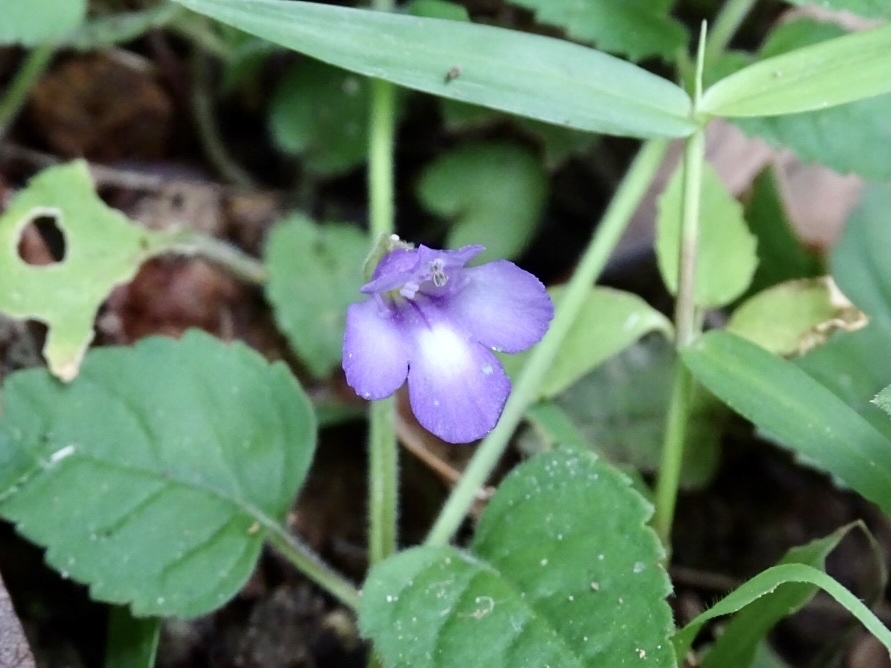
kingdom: Plantae
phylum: Tracheophyta
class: Magnoliopsida
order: Lamiales
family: Linderniaceae
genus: Torenia
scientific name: Torenia benthamiana
